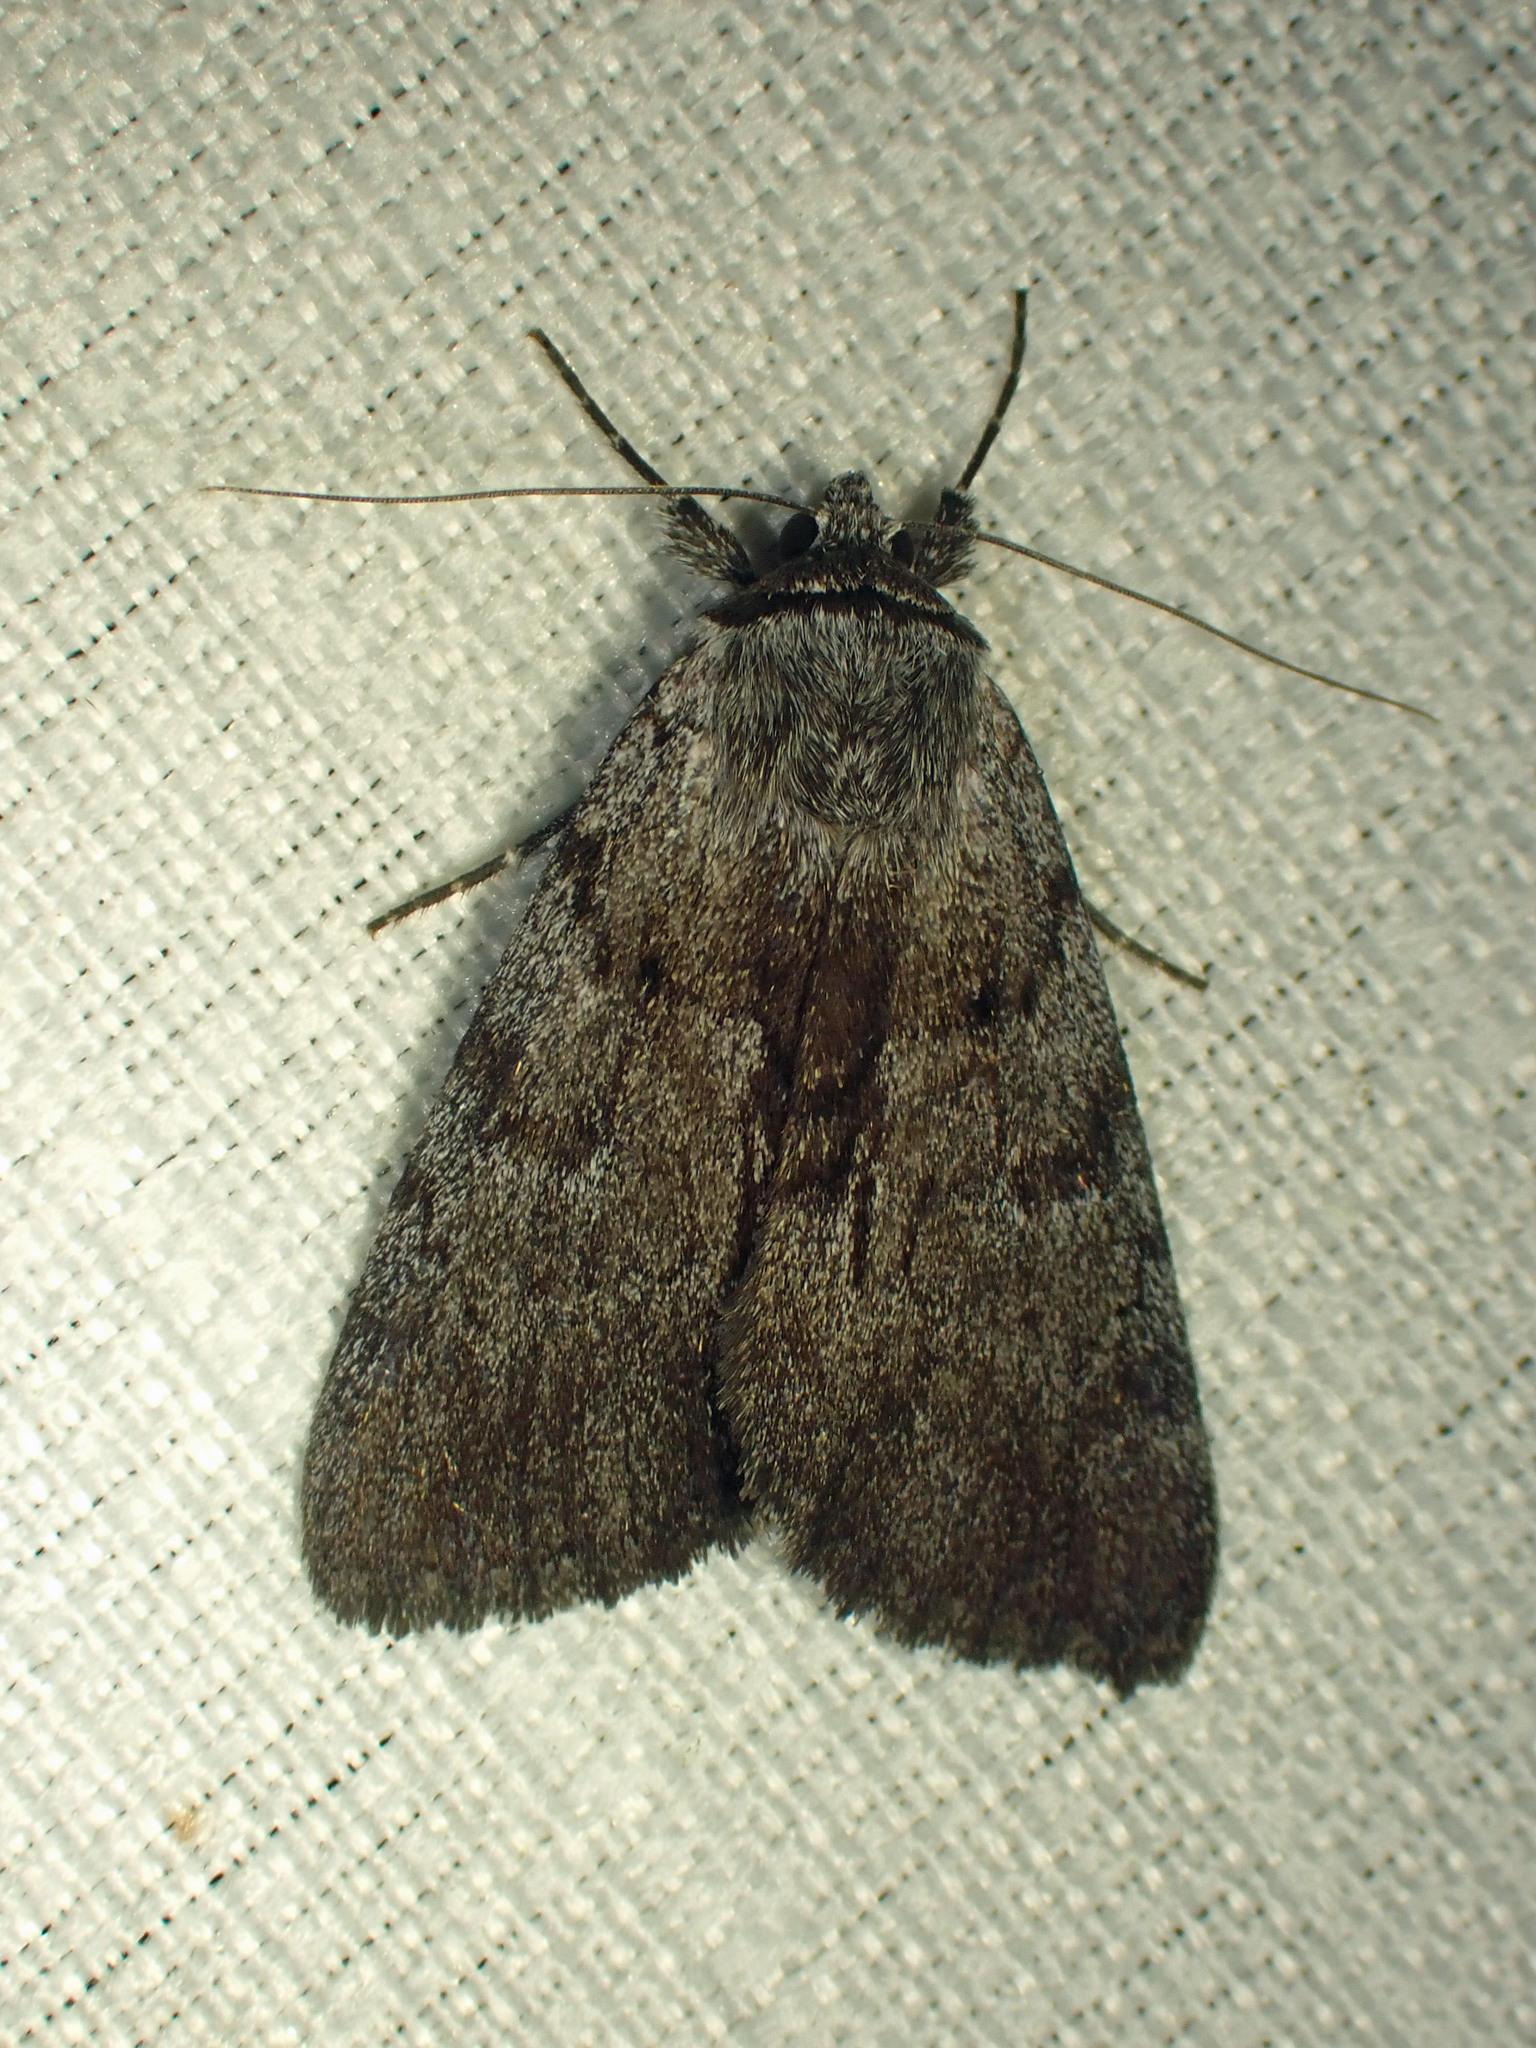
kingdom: Animalia
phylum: Arthropoda
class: Insecta
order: Lepidoptera
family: Erebidae
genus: Catocala
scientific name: Catocala sordida
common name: Sordid underwing
